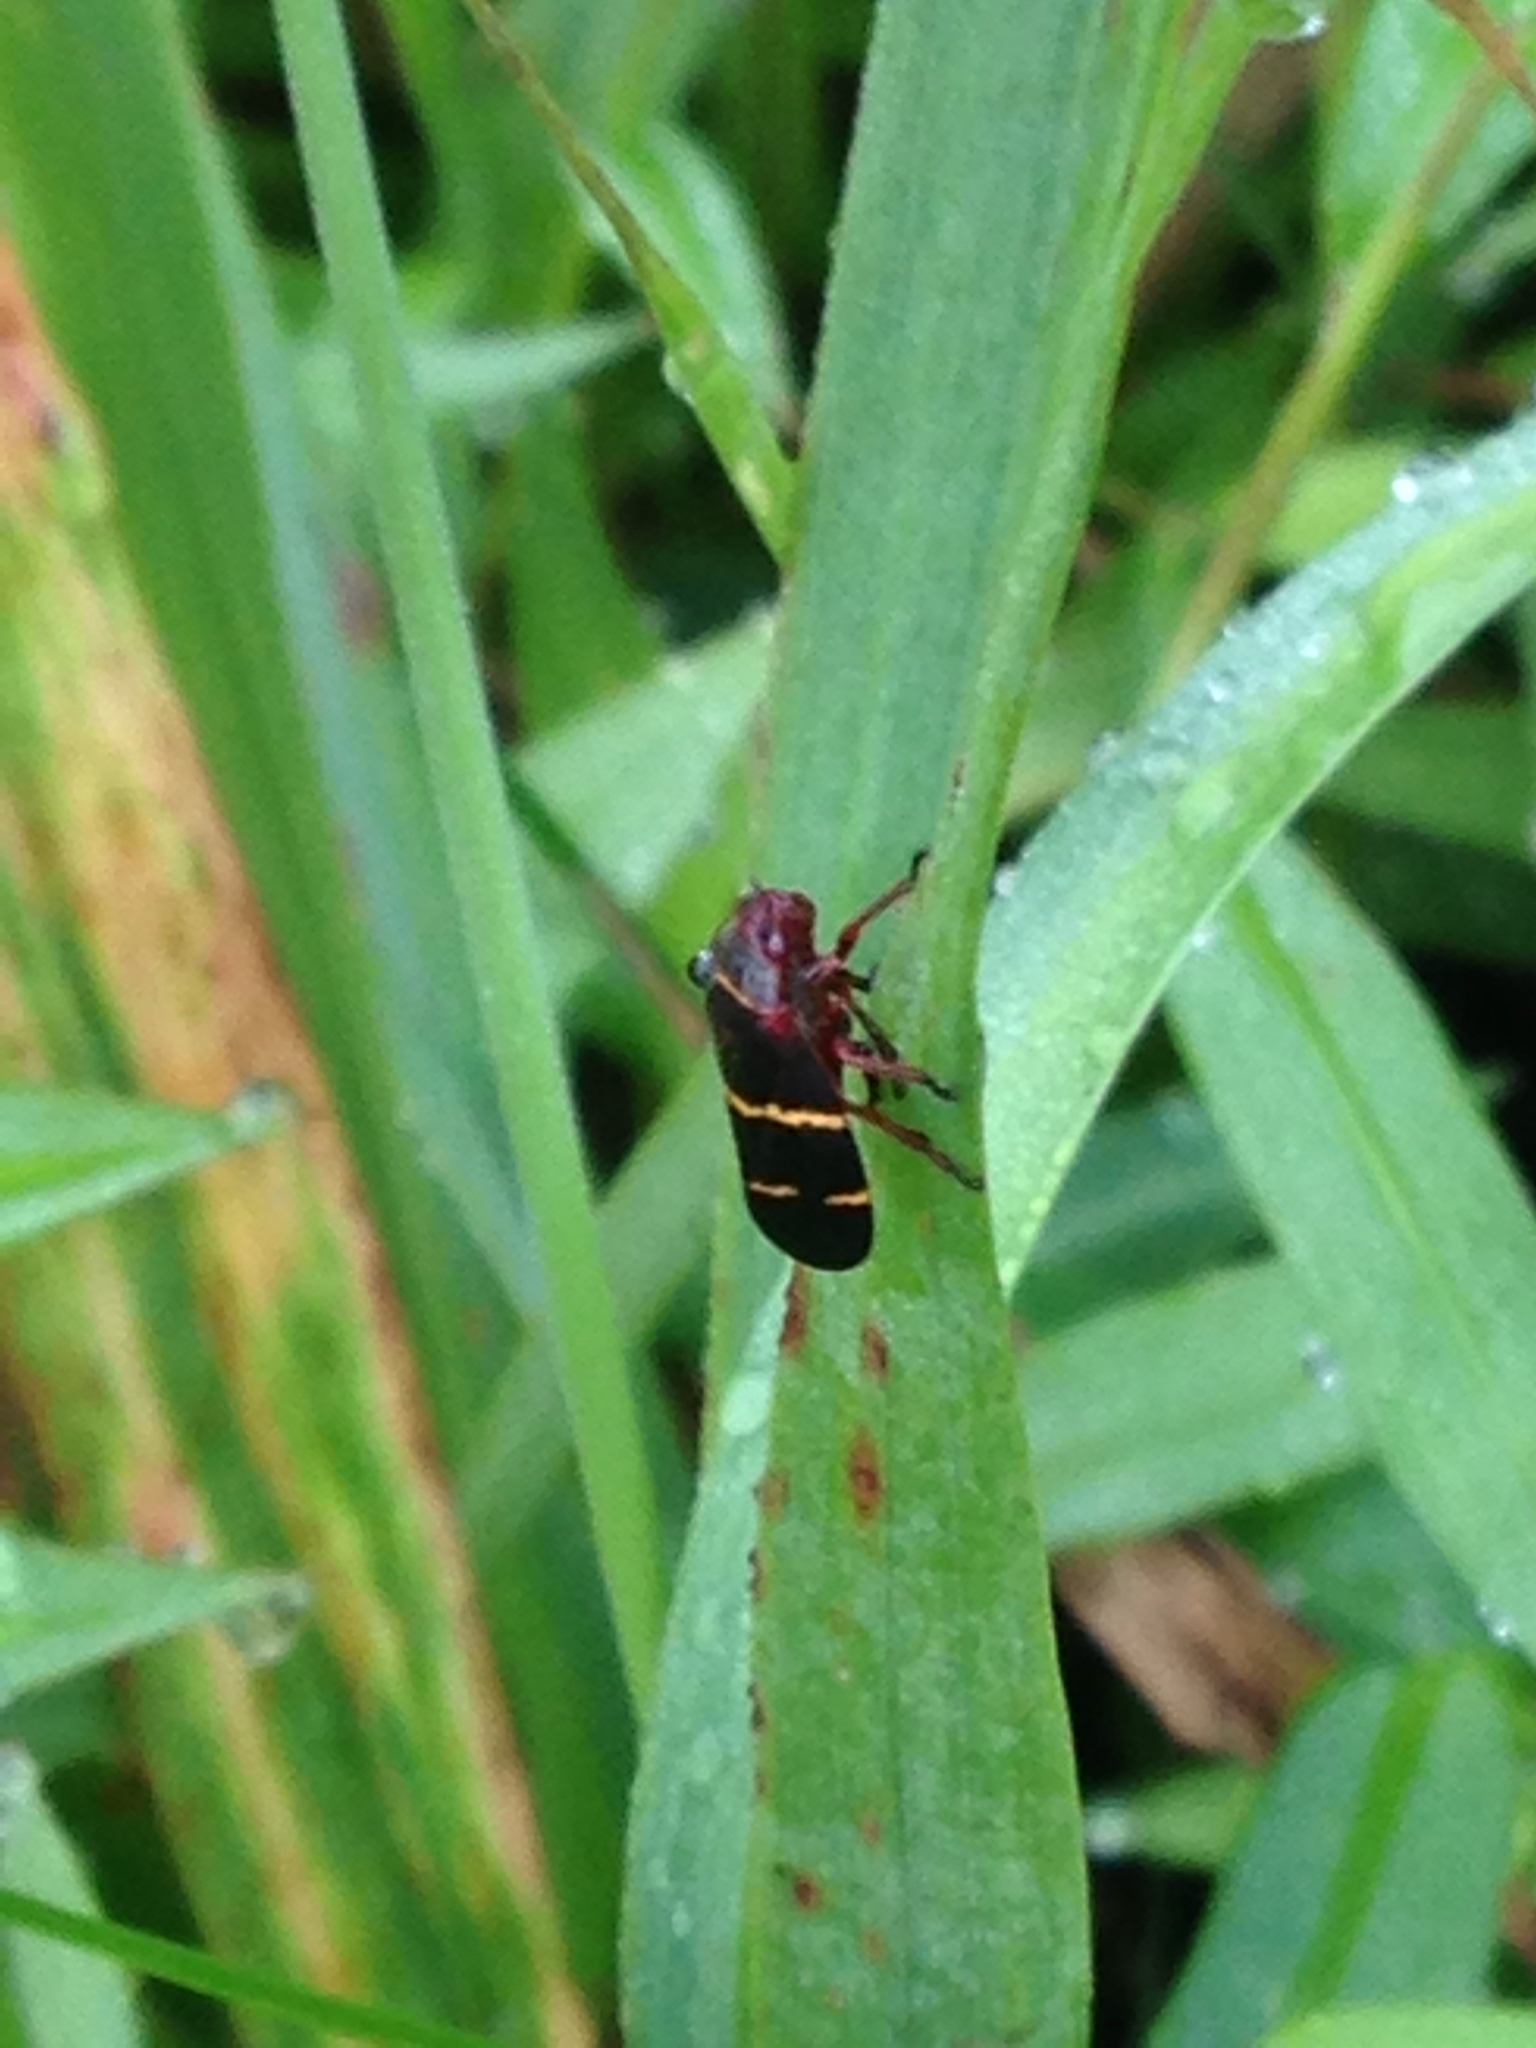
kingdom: Animalia
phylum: Arthropoda
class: Insecta
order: Hemiptera
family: Cercopidae
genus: Prosapia
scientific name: Prosapia bicincta
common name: Twolined spittlebug
